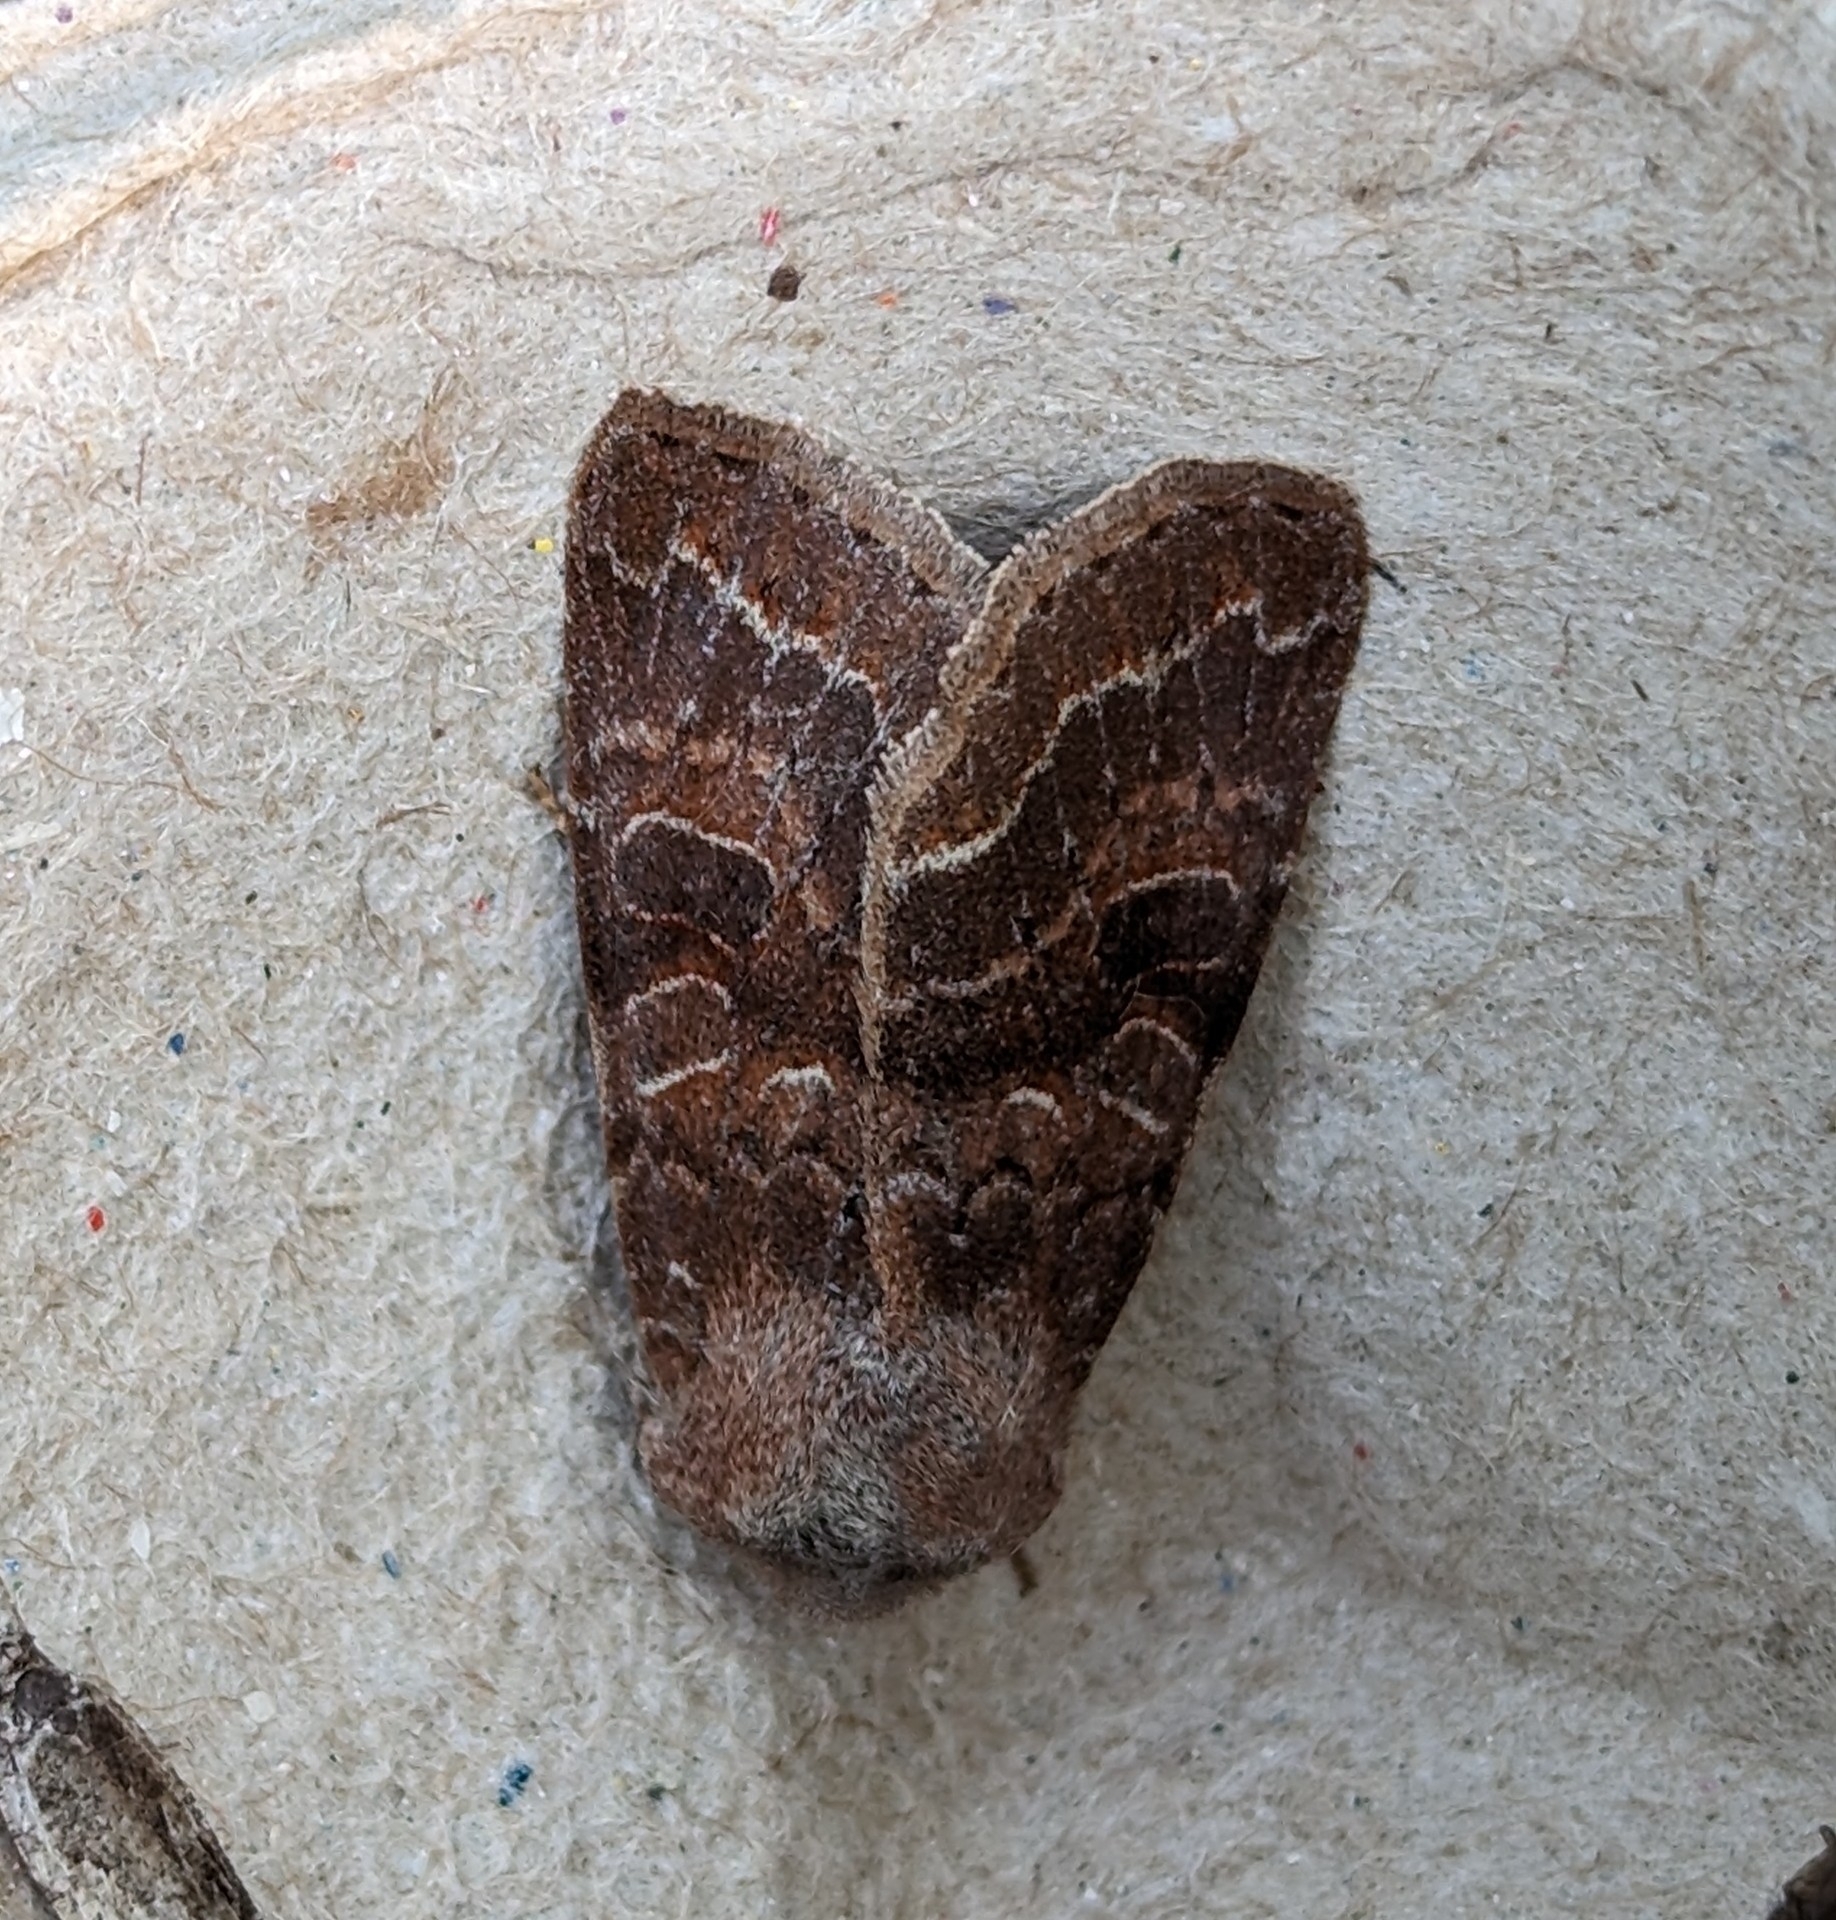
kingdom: Animalia
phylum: Arthropoda
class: Insecta
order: Lepidoptera
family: Noctuidae
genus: Orthosia
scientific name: Orthosia revicta
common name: Rusty whitesided caterpillar
